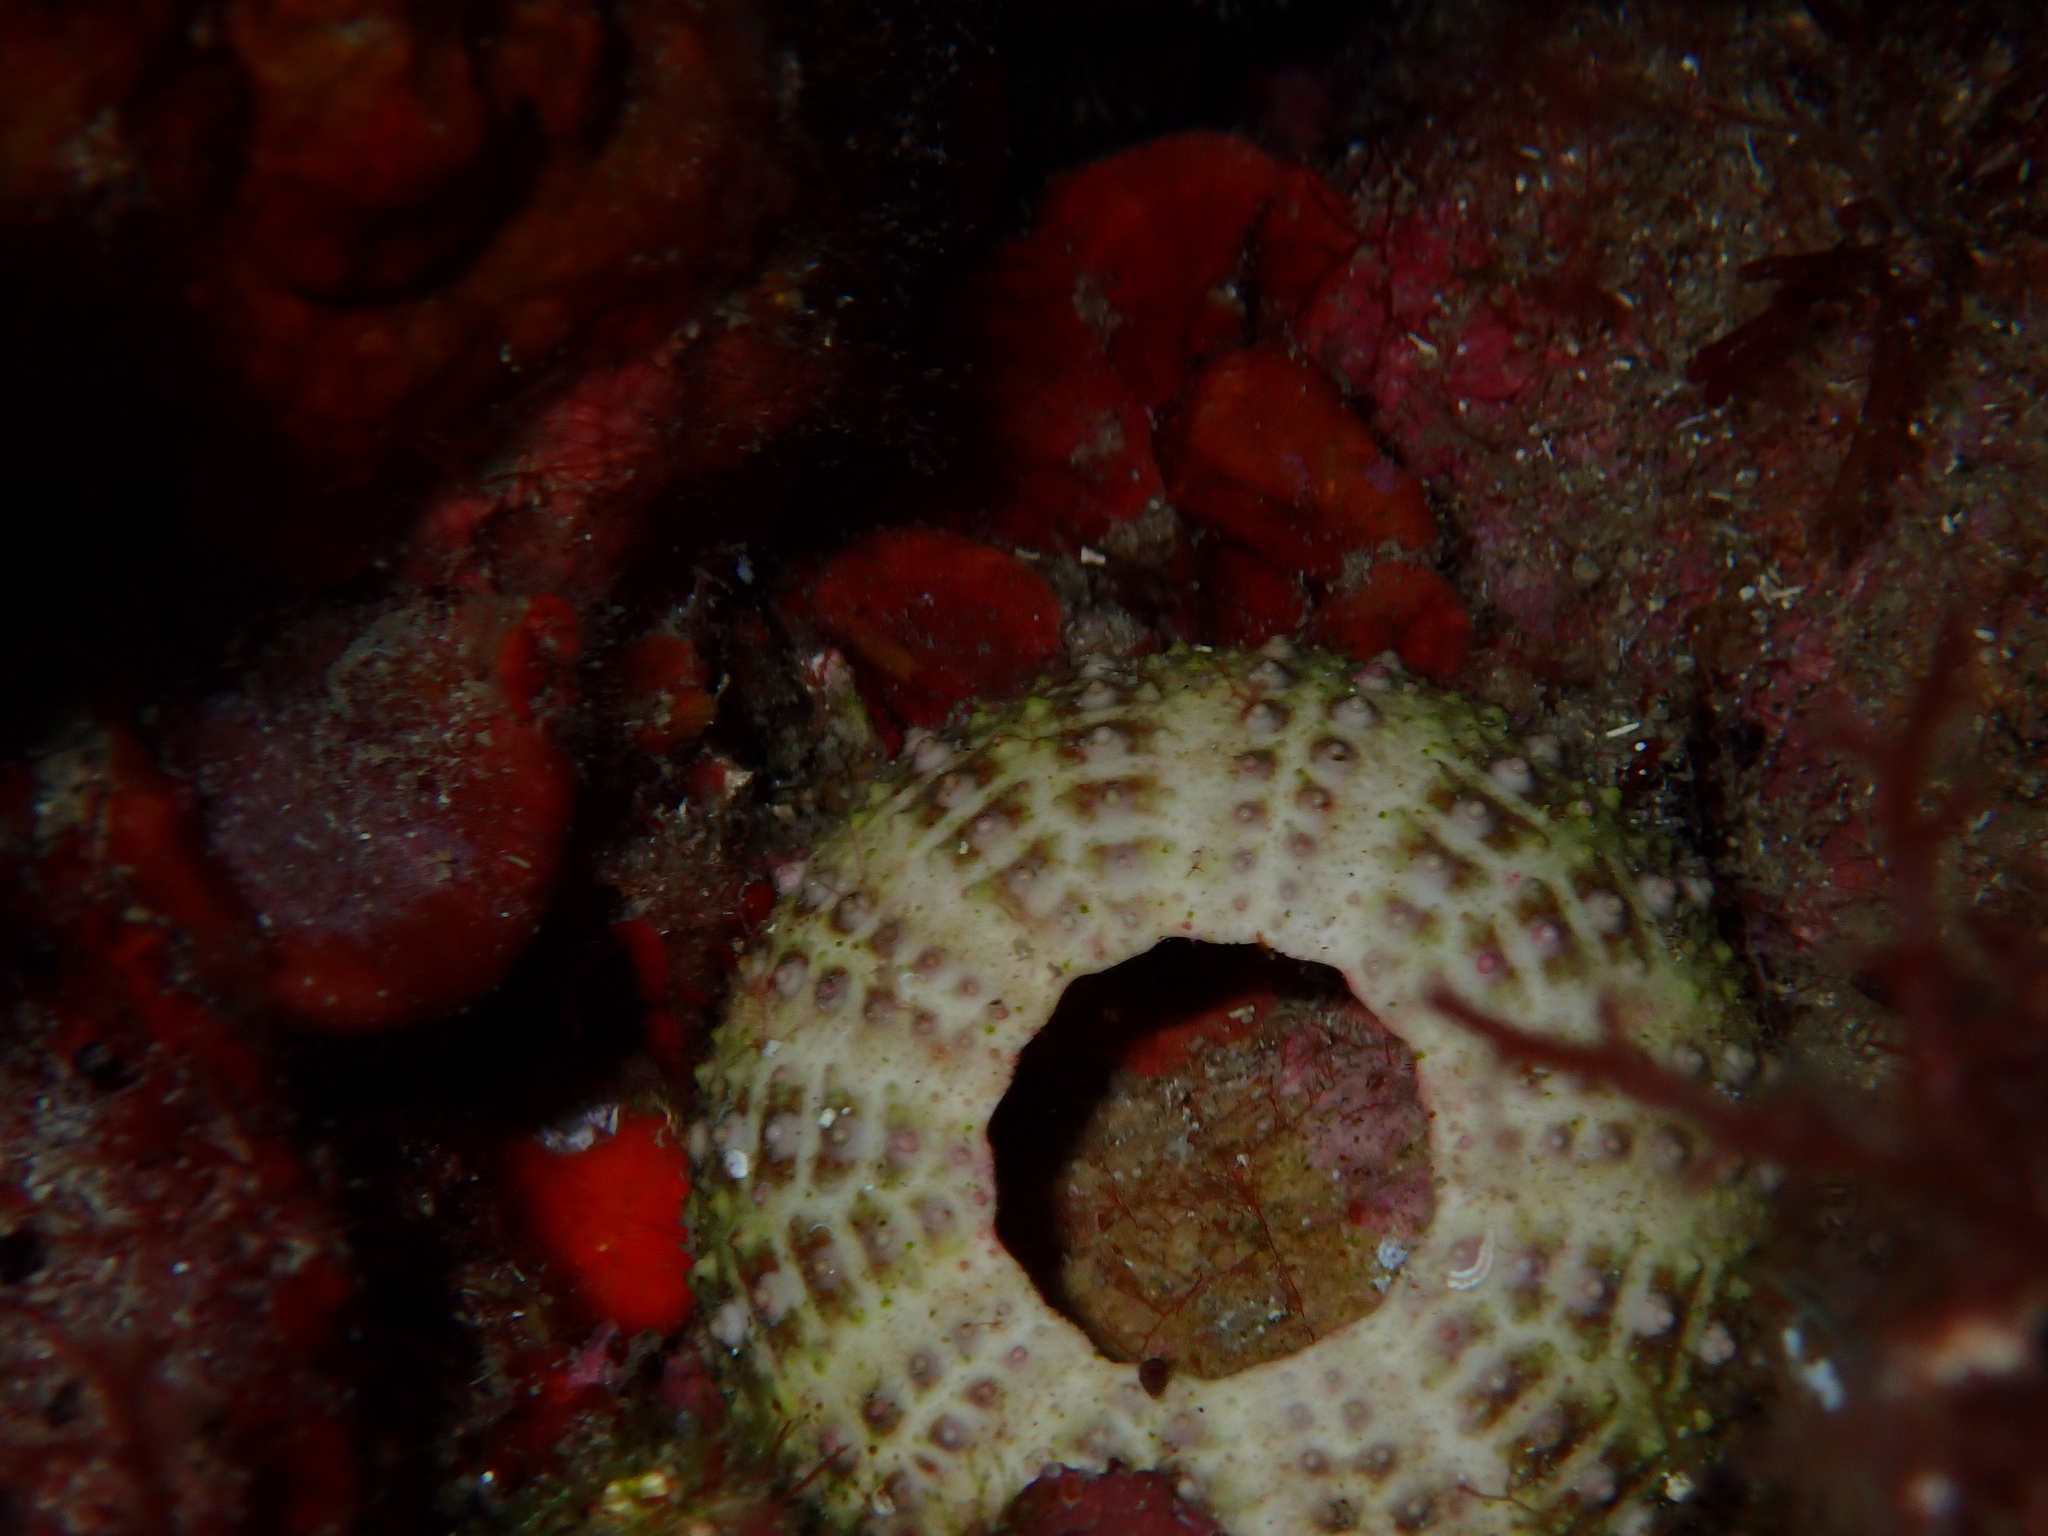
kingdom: Animalia
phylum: Echinodermata
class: Echinoidea
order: Camarodonta
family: Parechinidae
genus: Paracentrotus
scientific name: Paracentrotus lividus
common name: Purple sea urchin
